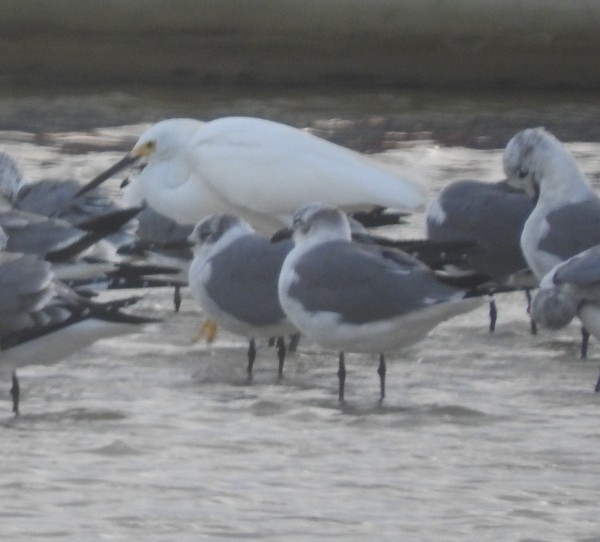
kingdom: Animalia
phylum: Chordata
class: Aves
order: Pelecaniformes
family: Ardeidae
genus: Egretta
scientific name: Egretta thula
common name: Snowy egret
